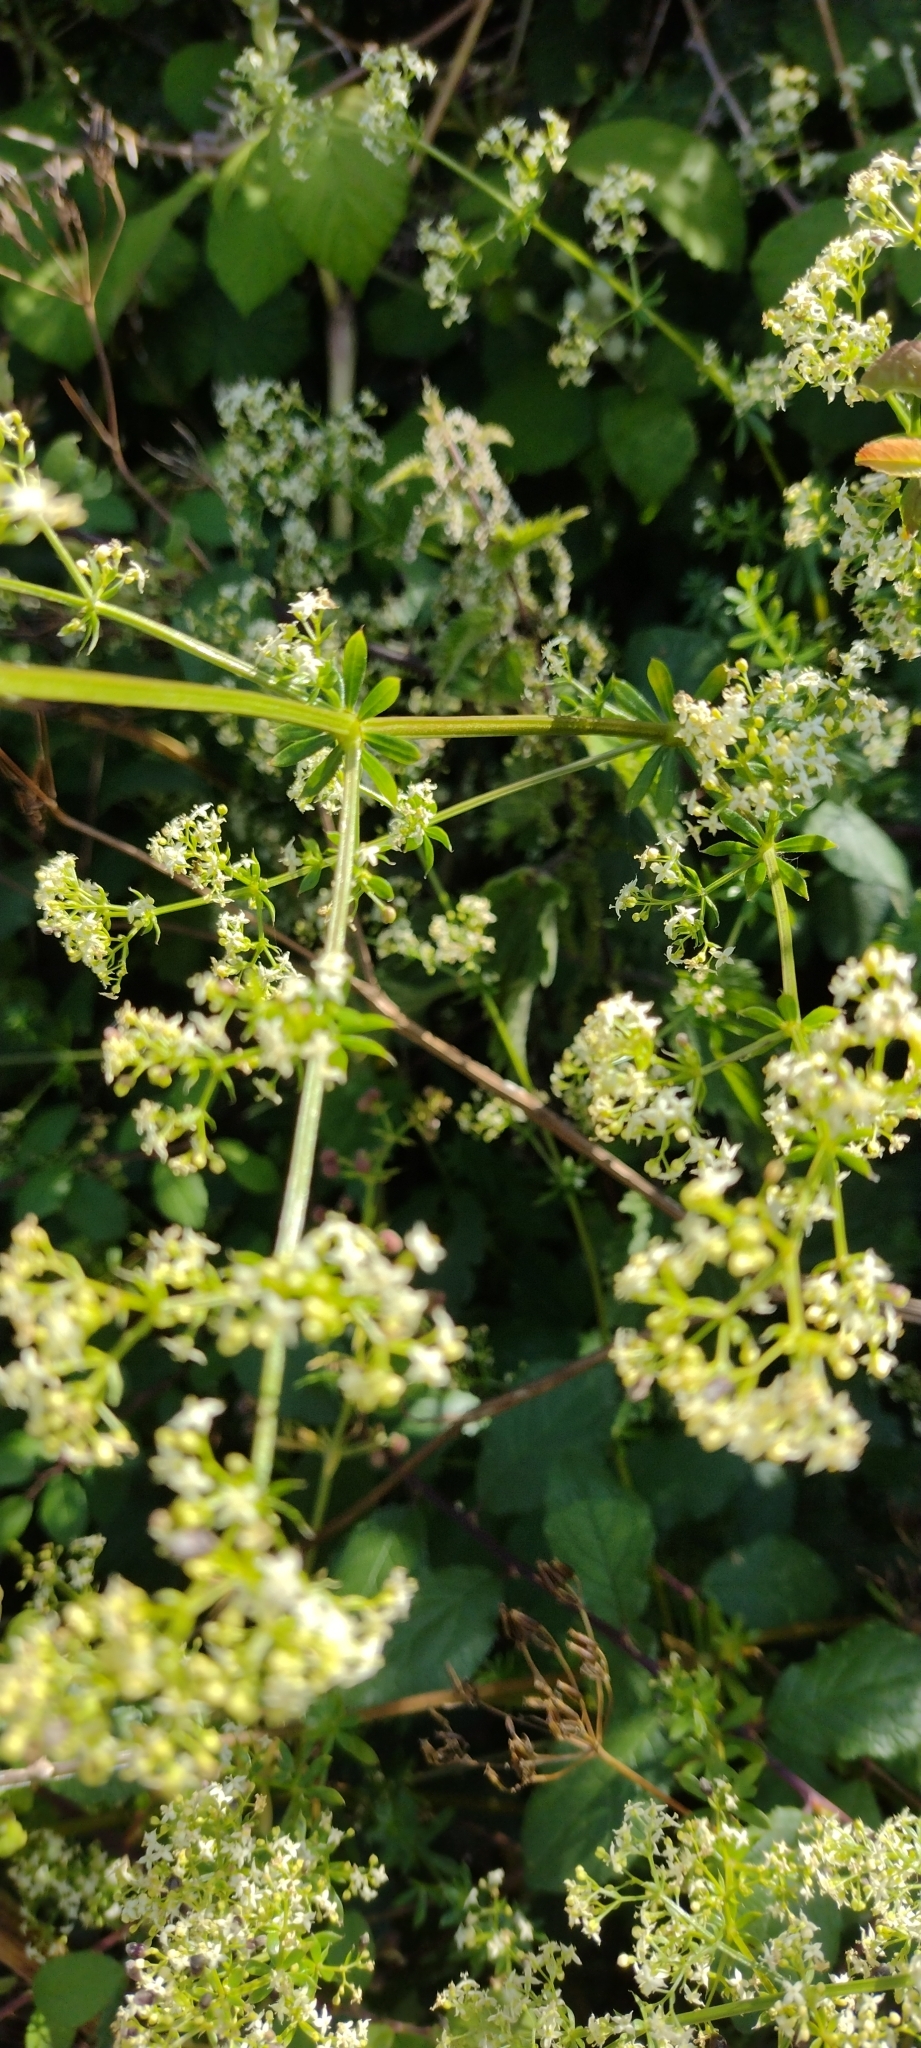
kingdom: Plantae
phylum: Tracheophyta
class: Magnoliopsida
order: Gentianales
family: Rubiaceae
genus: Galium
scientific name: Galium mollugo
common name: Hedge bedstraw
